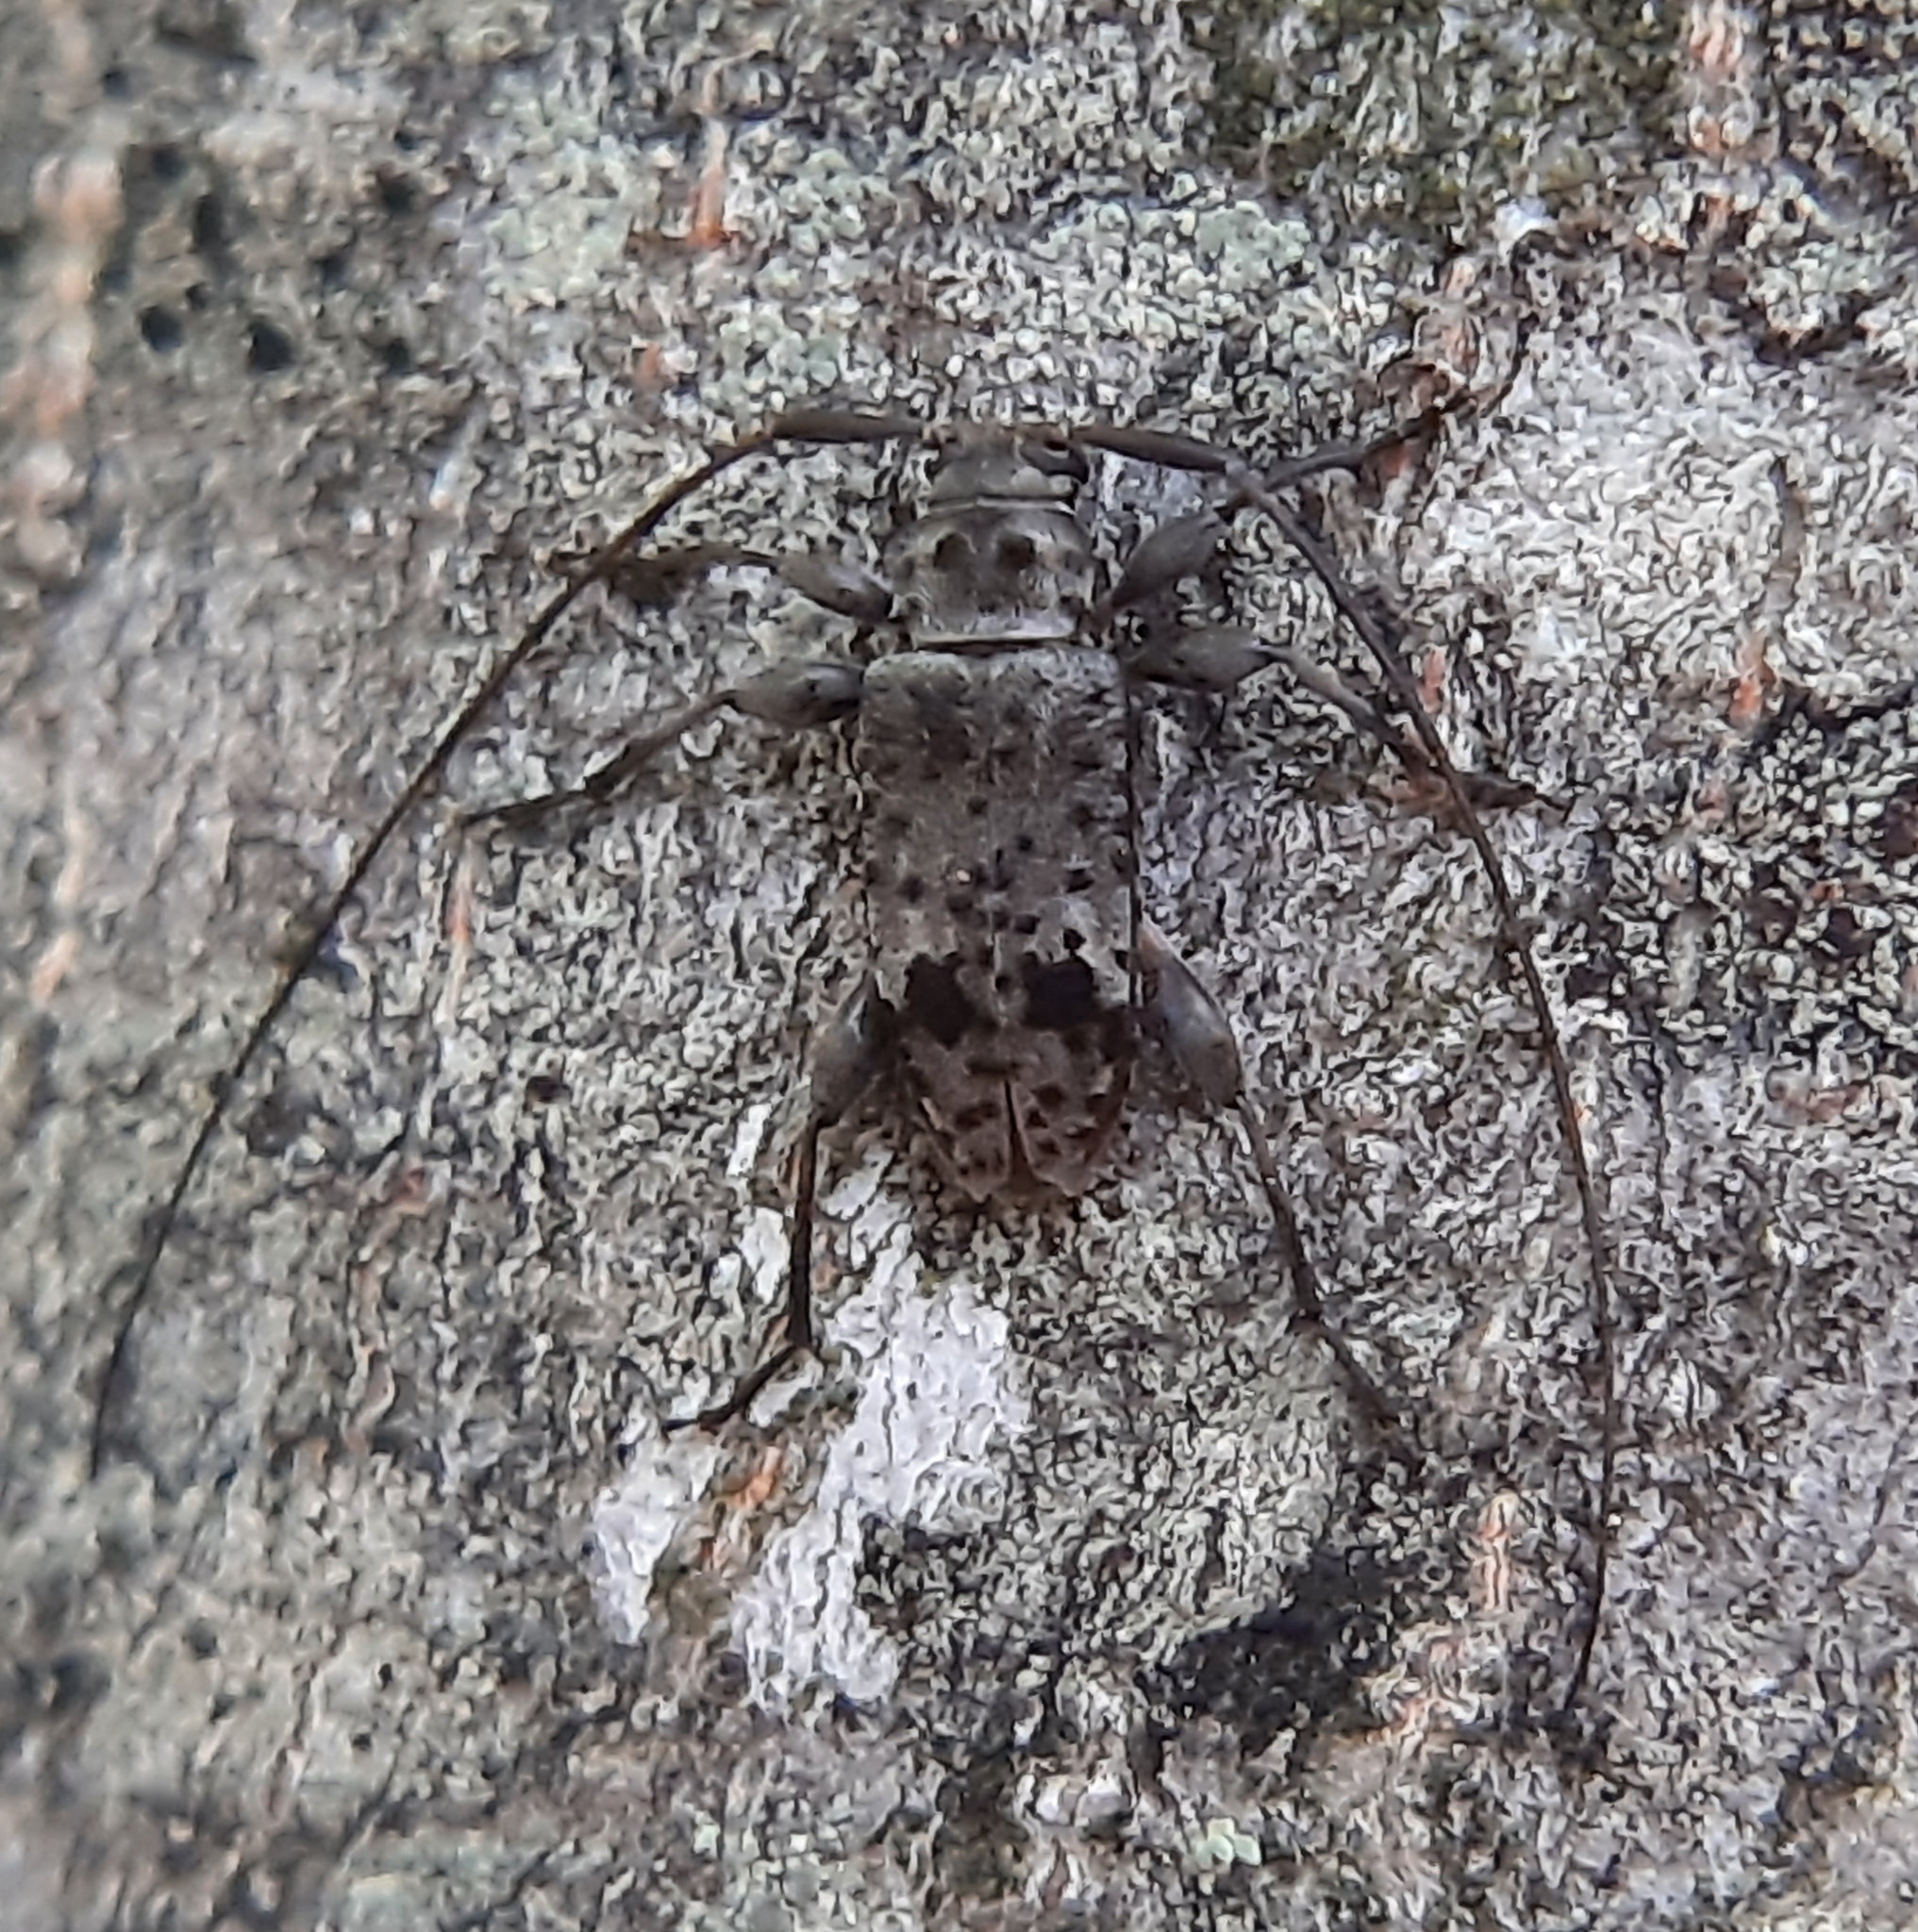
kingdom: Animalia
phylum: Arthropoda
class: Insecta
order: Coleoptera
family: Cerambycidae
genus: Hyperplatys
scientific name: Hyperplatys maculata
